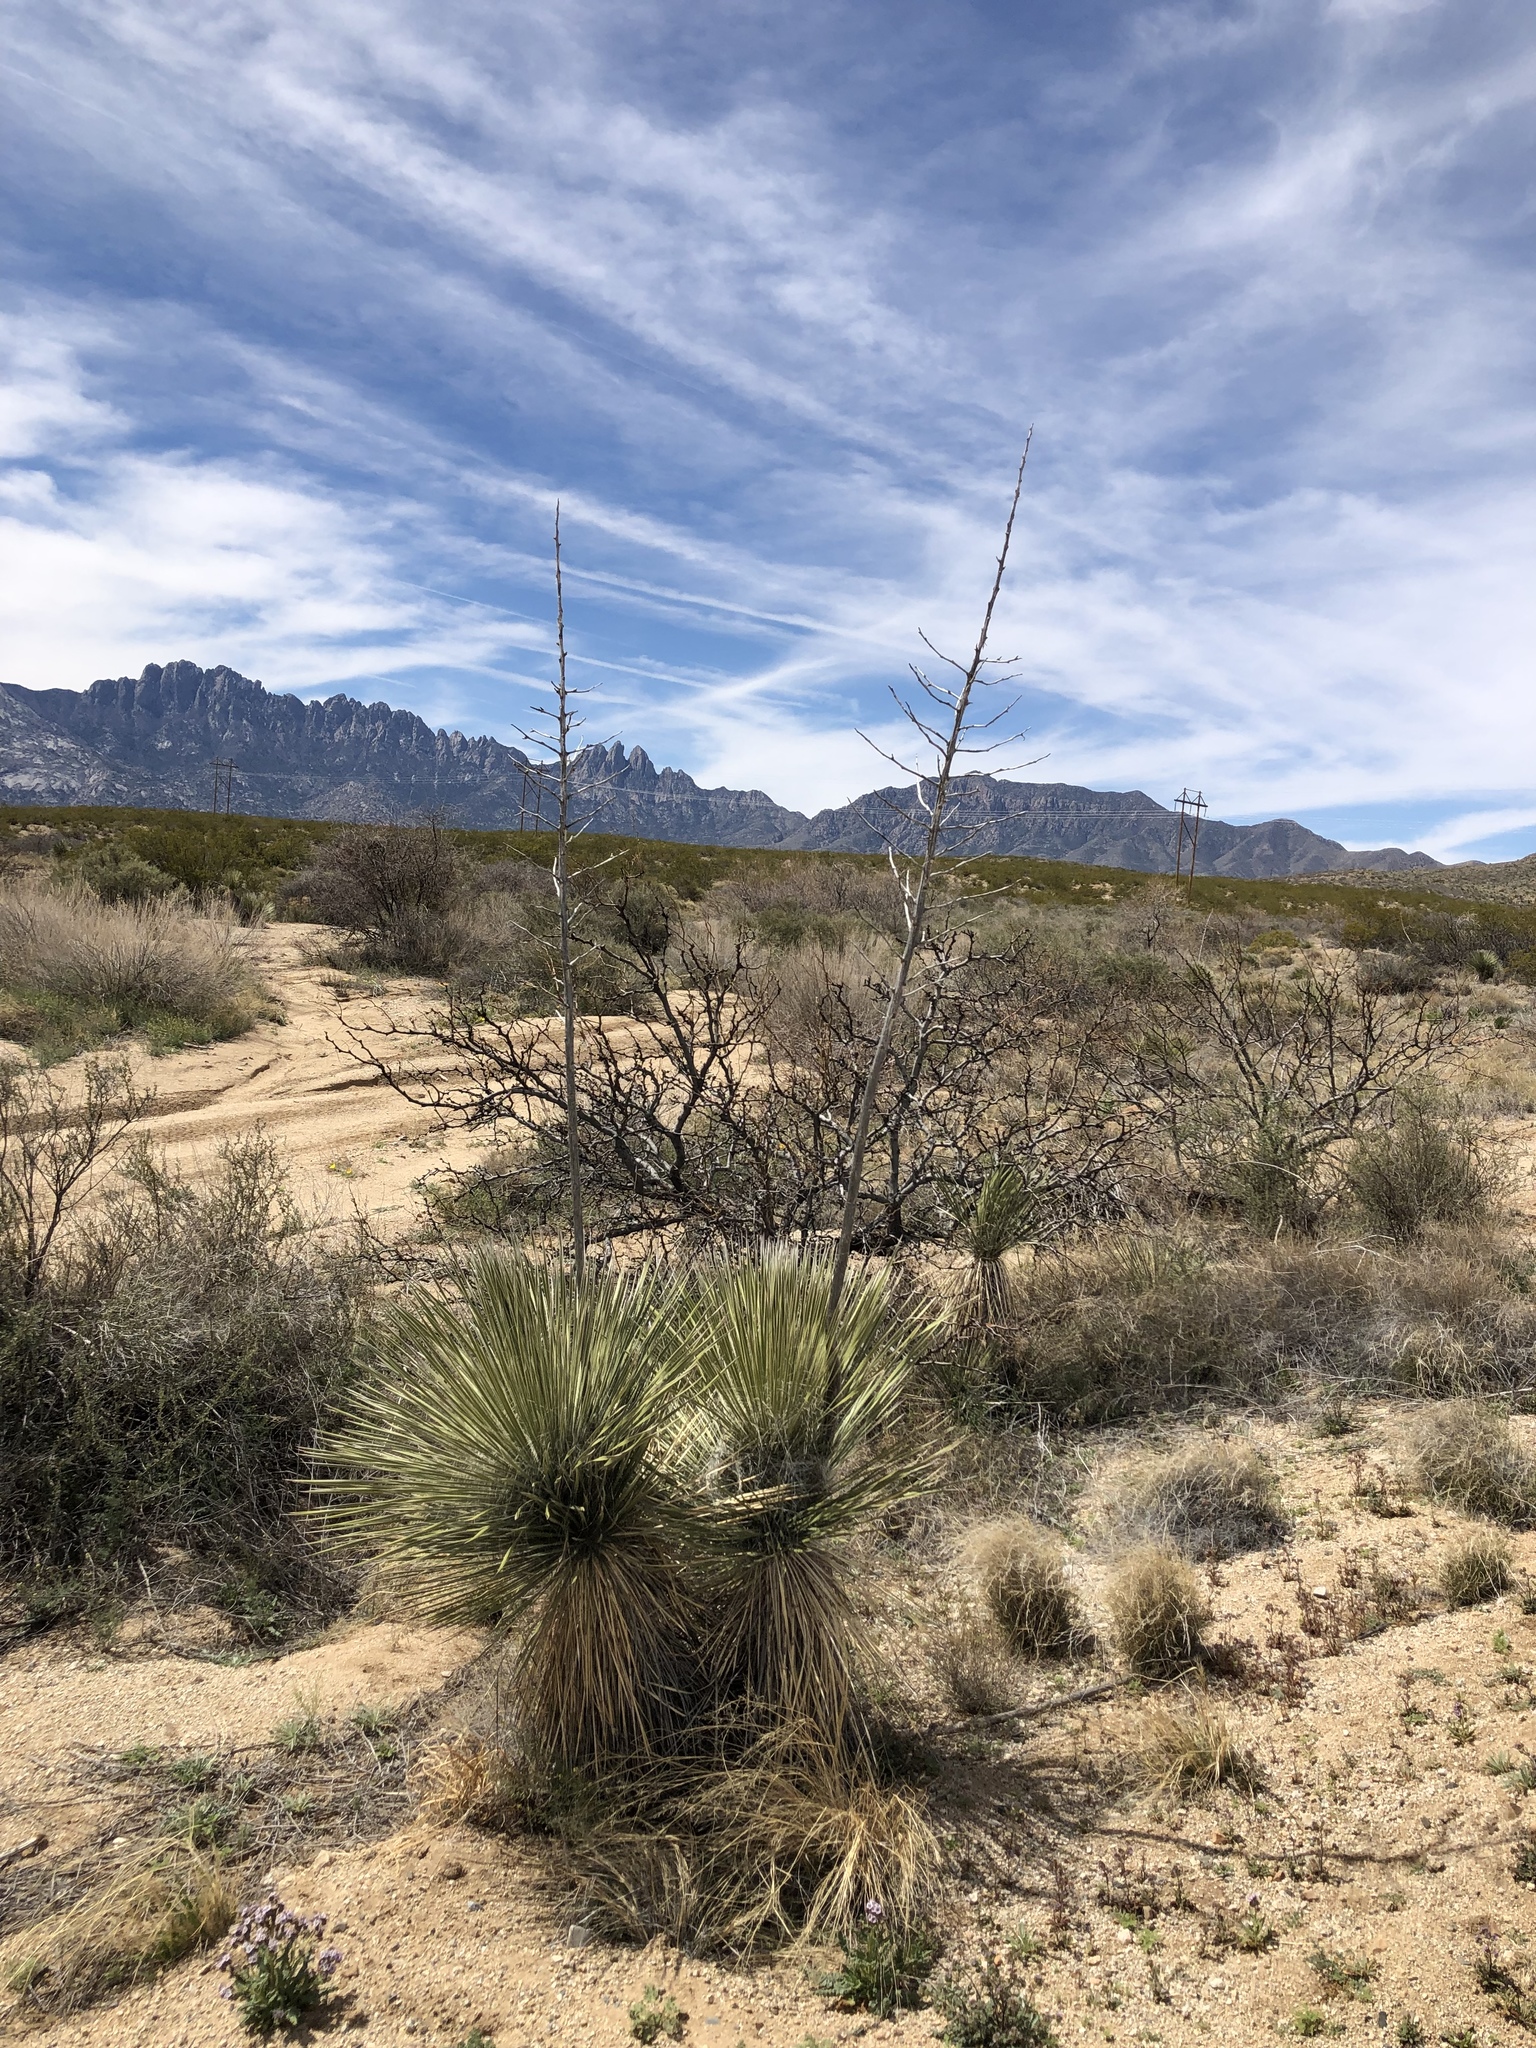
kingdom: Plantae
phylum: Tracheophyta
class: Liliopsida
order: Asparagales
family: Asparagaceae
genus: Yucca
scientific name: Yucca elata
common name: Palmella
